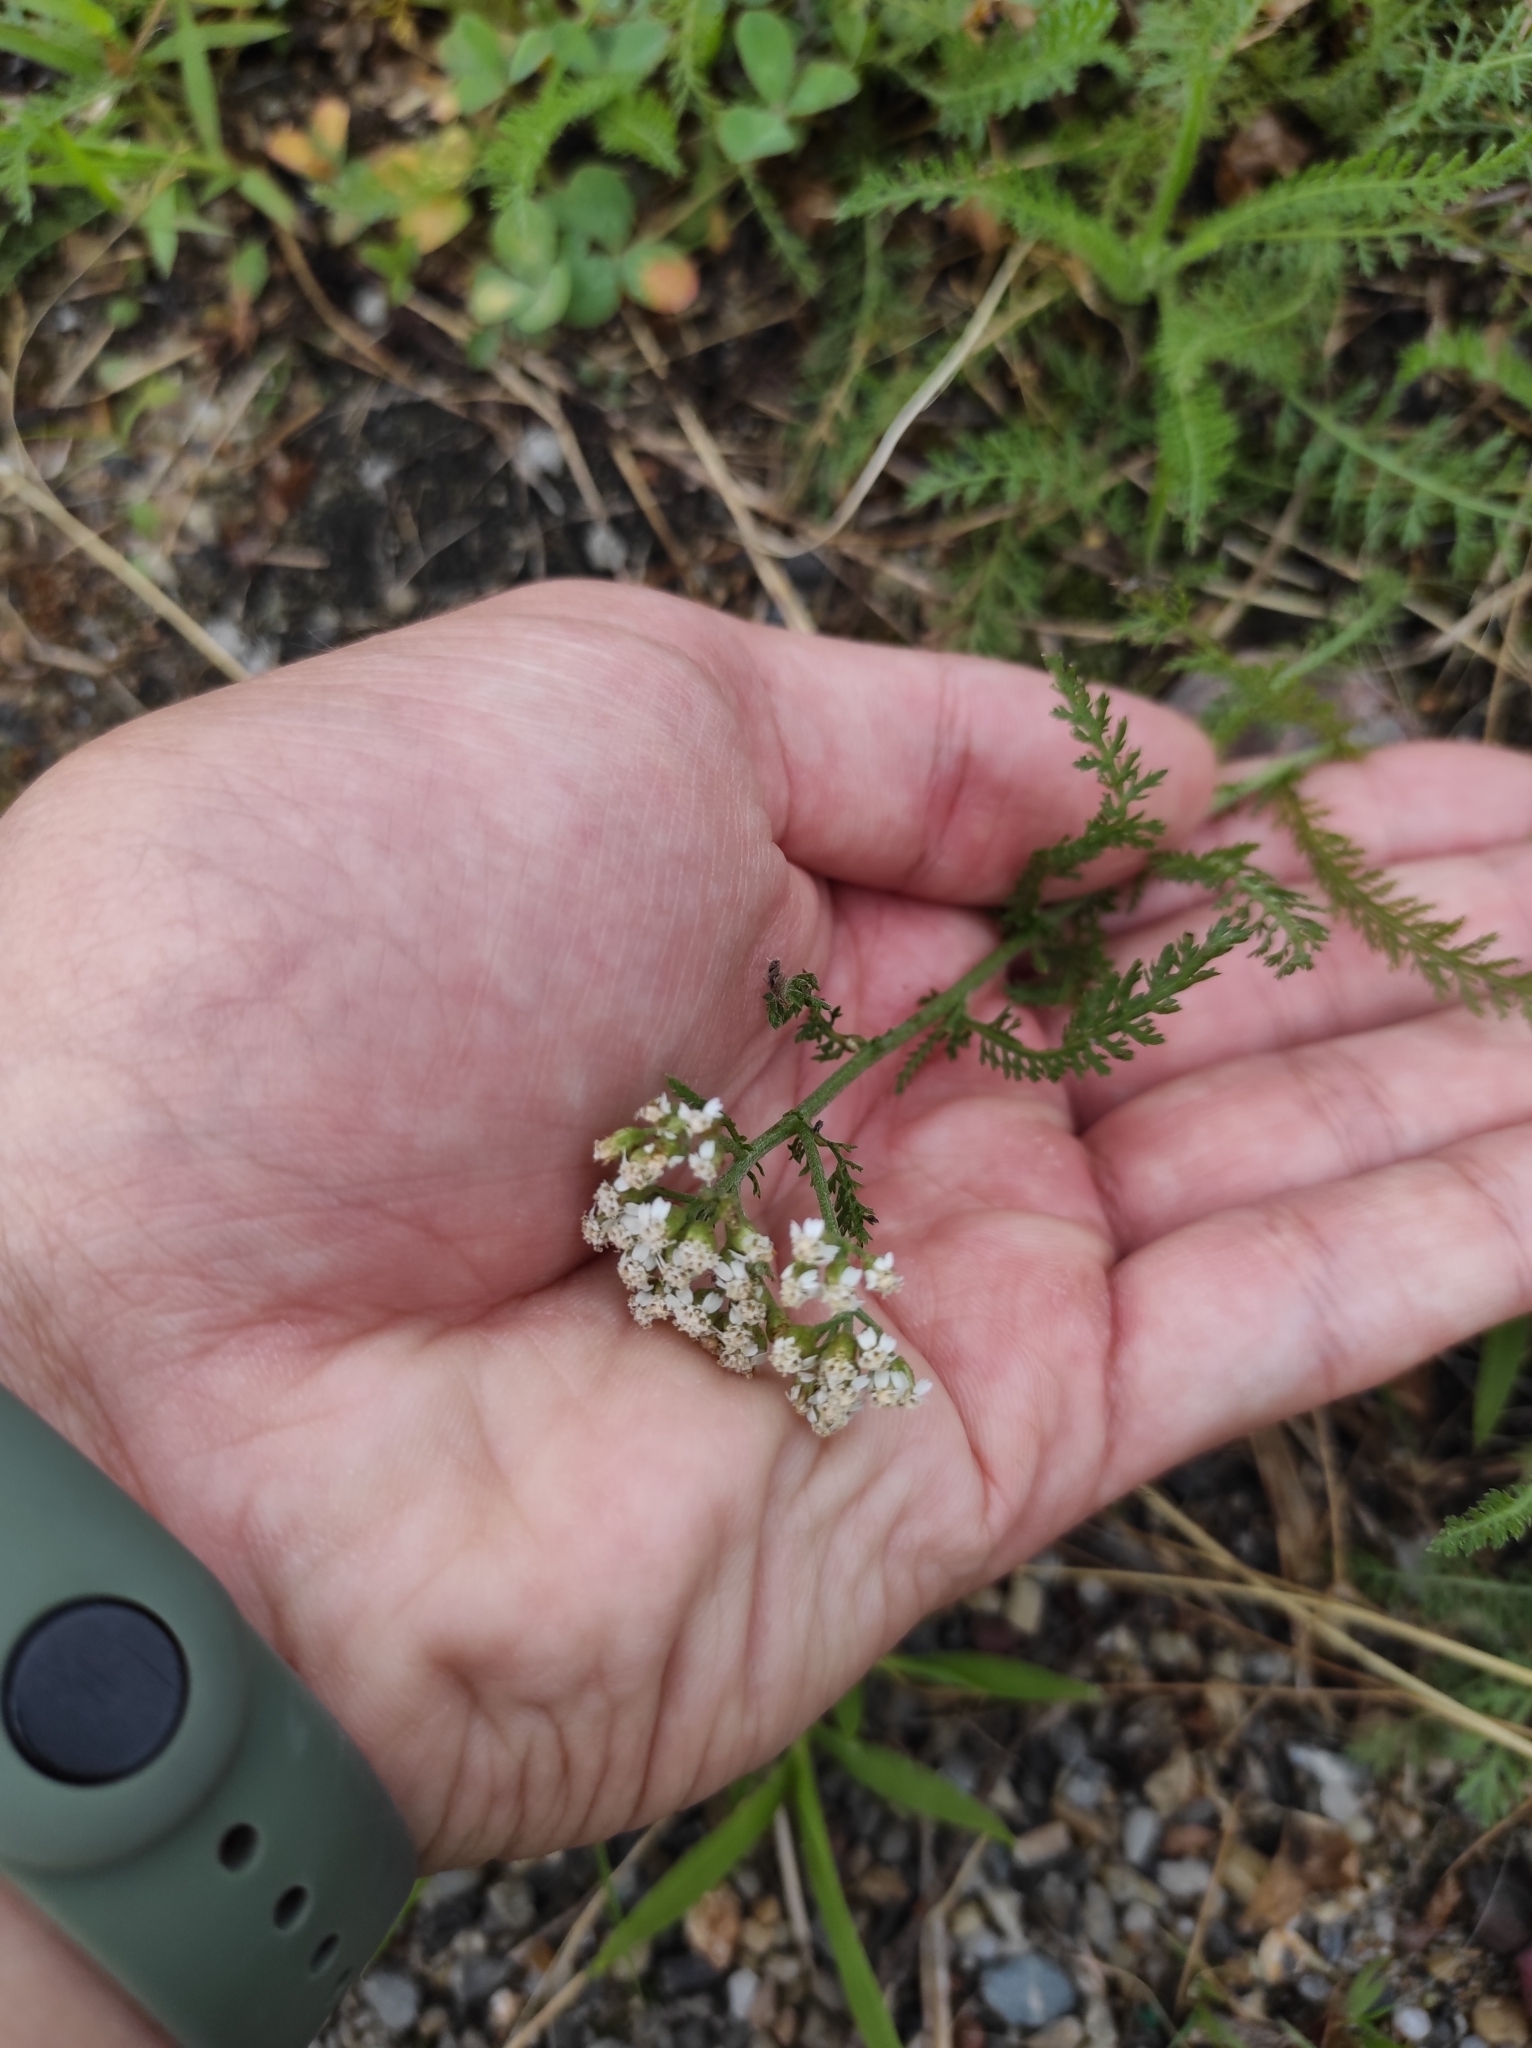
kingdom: Plantae
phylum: Tracheophyta
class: Magnoliopsida
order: Asterales
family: Asteraceae
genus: Achillea
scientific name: Achillea millefolium
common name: Yarrow
